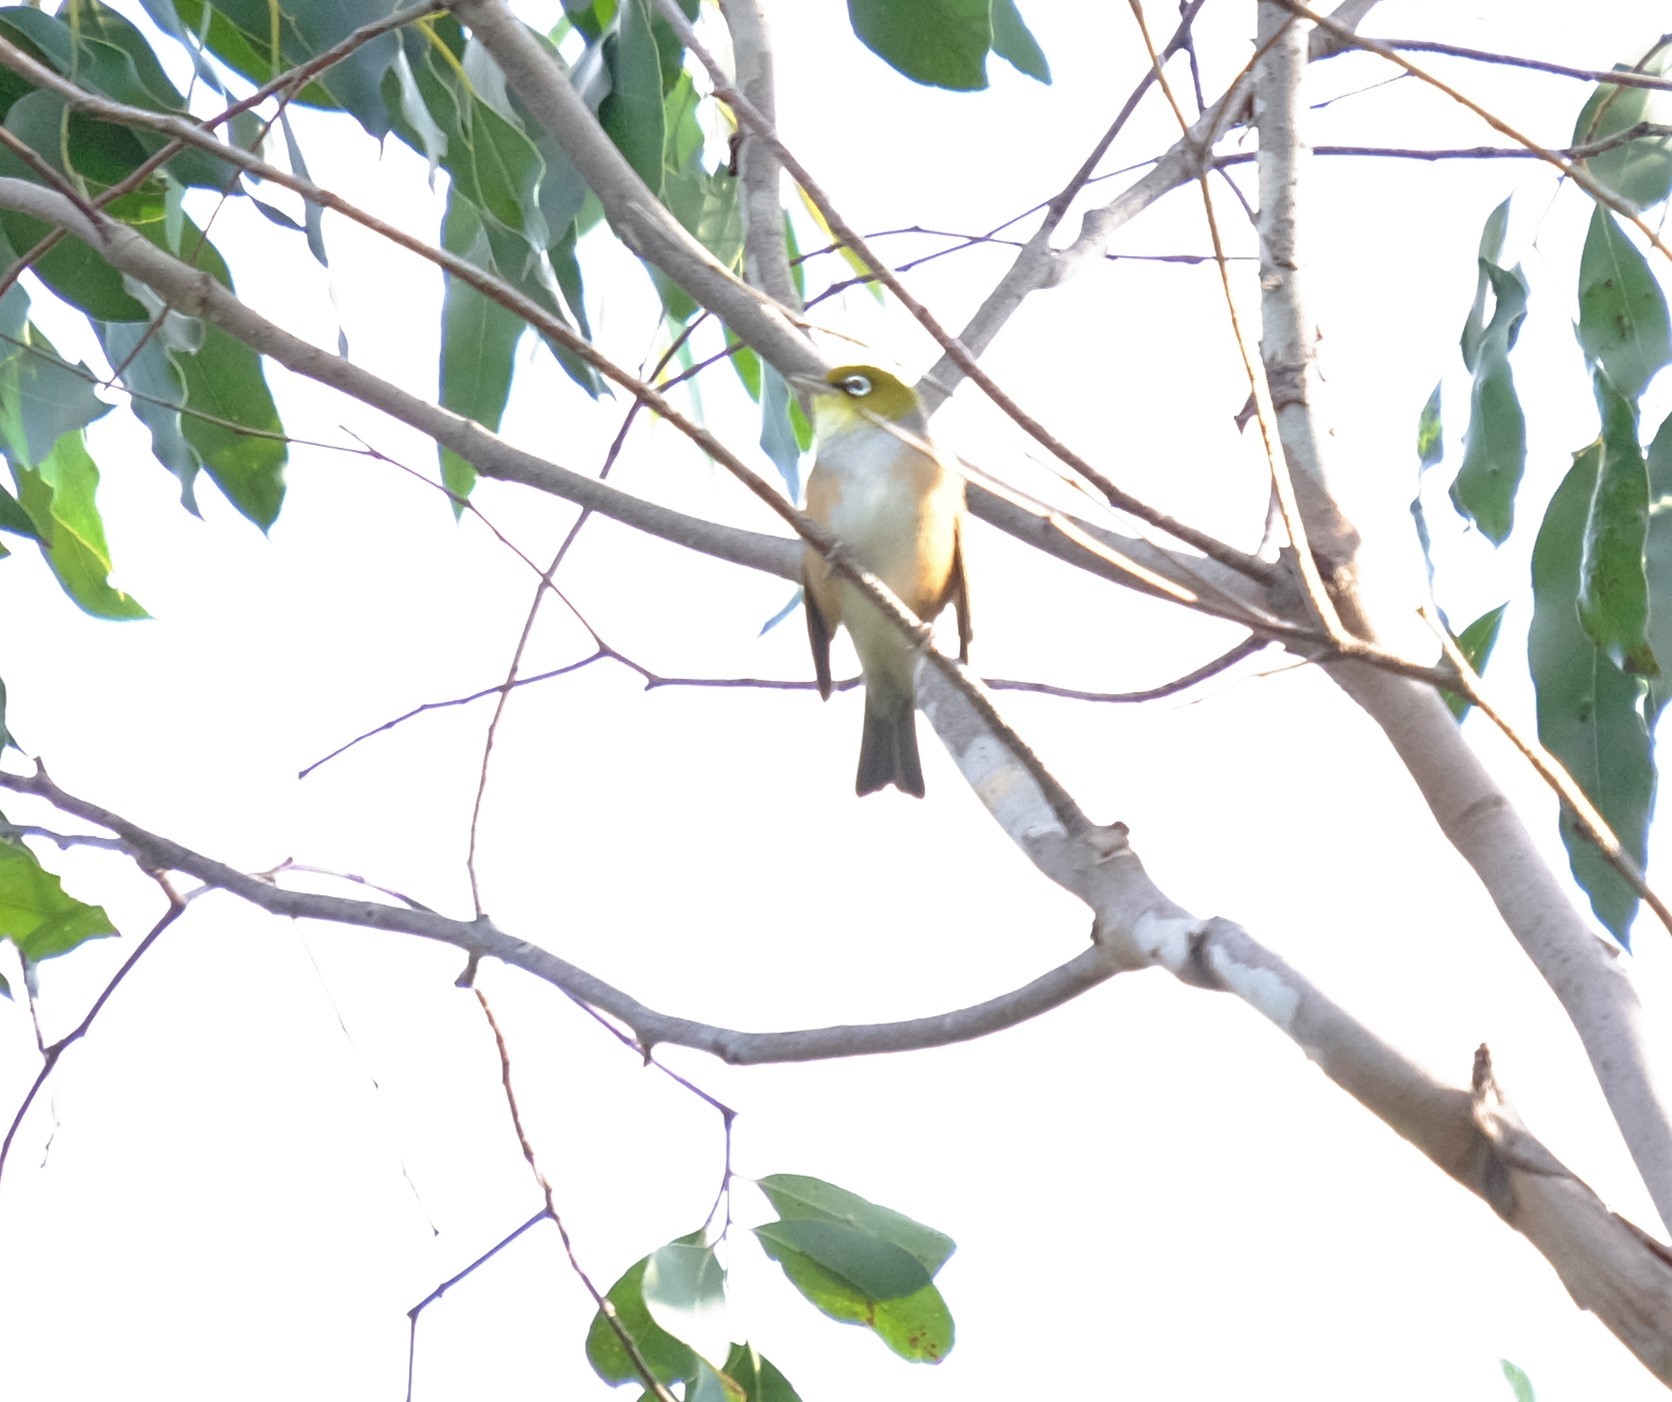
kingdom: Animalia
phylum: Chordata
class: Aves
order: Passeriformes
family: Zosteropidae
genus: Zosterops
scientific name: Zosterops lateralis
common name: Silvereye
